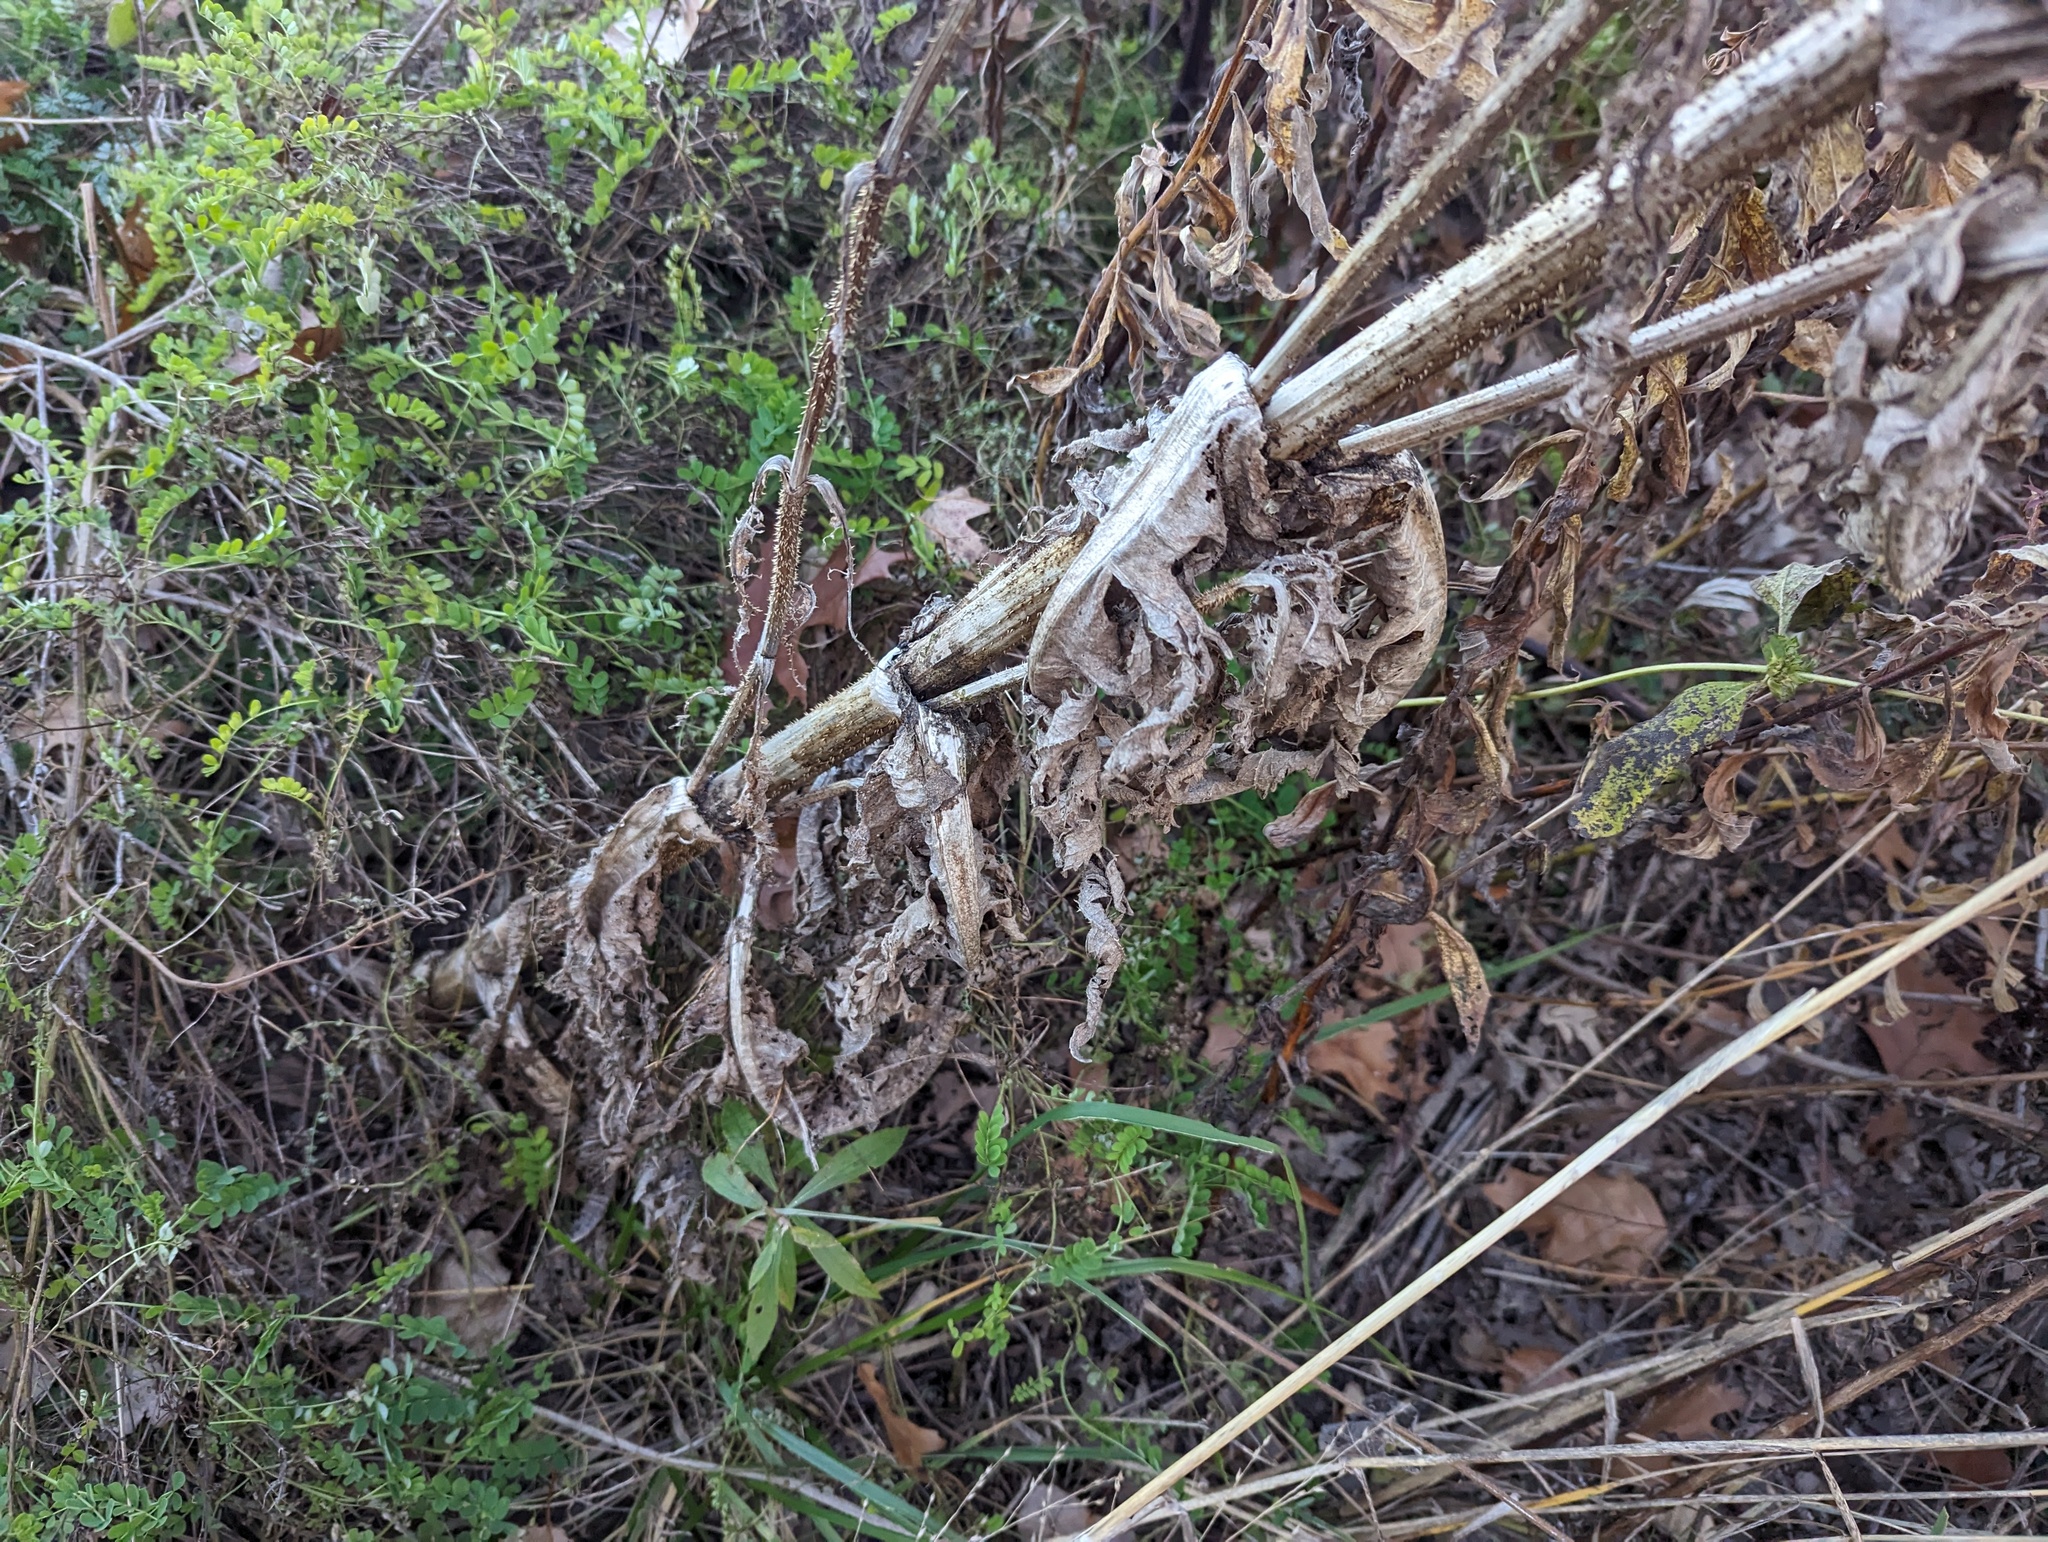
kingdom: Plantae
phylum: Tracheophyta
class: Magnoliopsida
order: Dipsacales
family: Caprifoliaceae
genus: Dipsacus
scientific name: Dipsacus laciniatus
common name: Cut-leaved teasel
